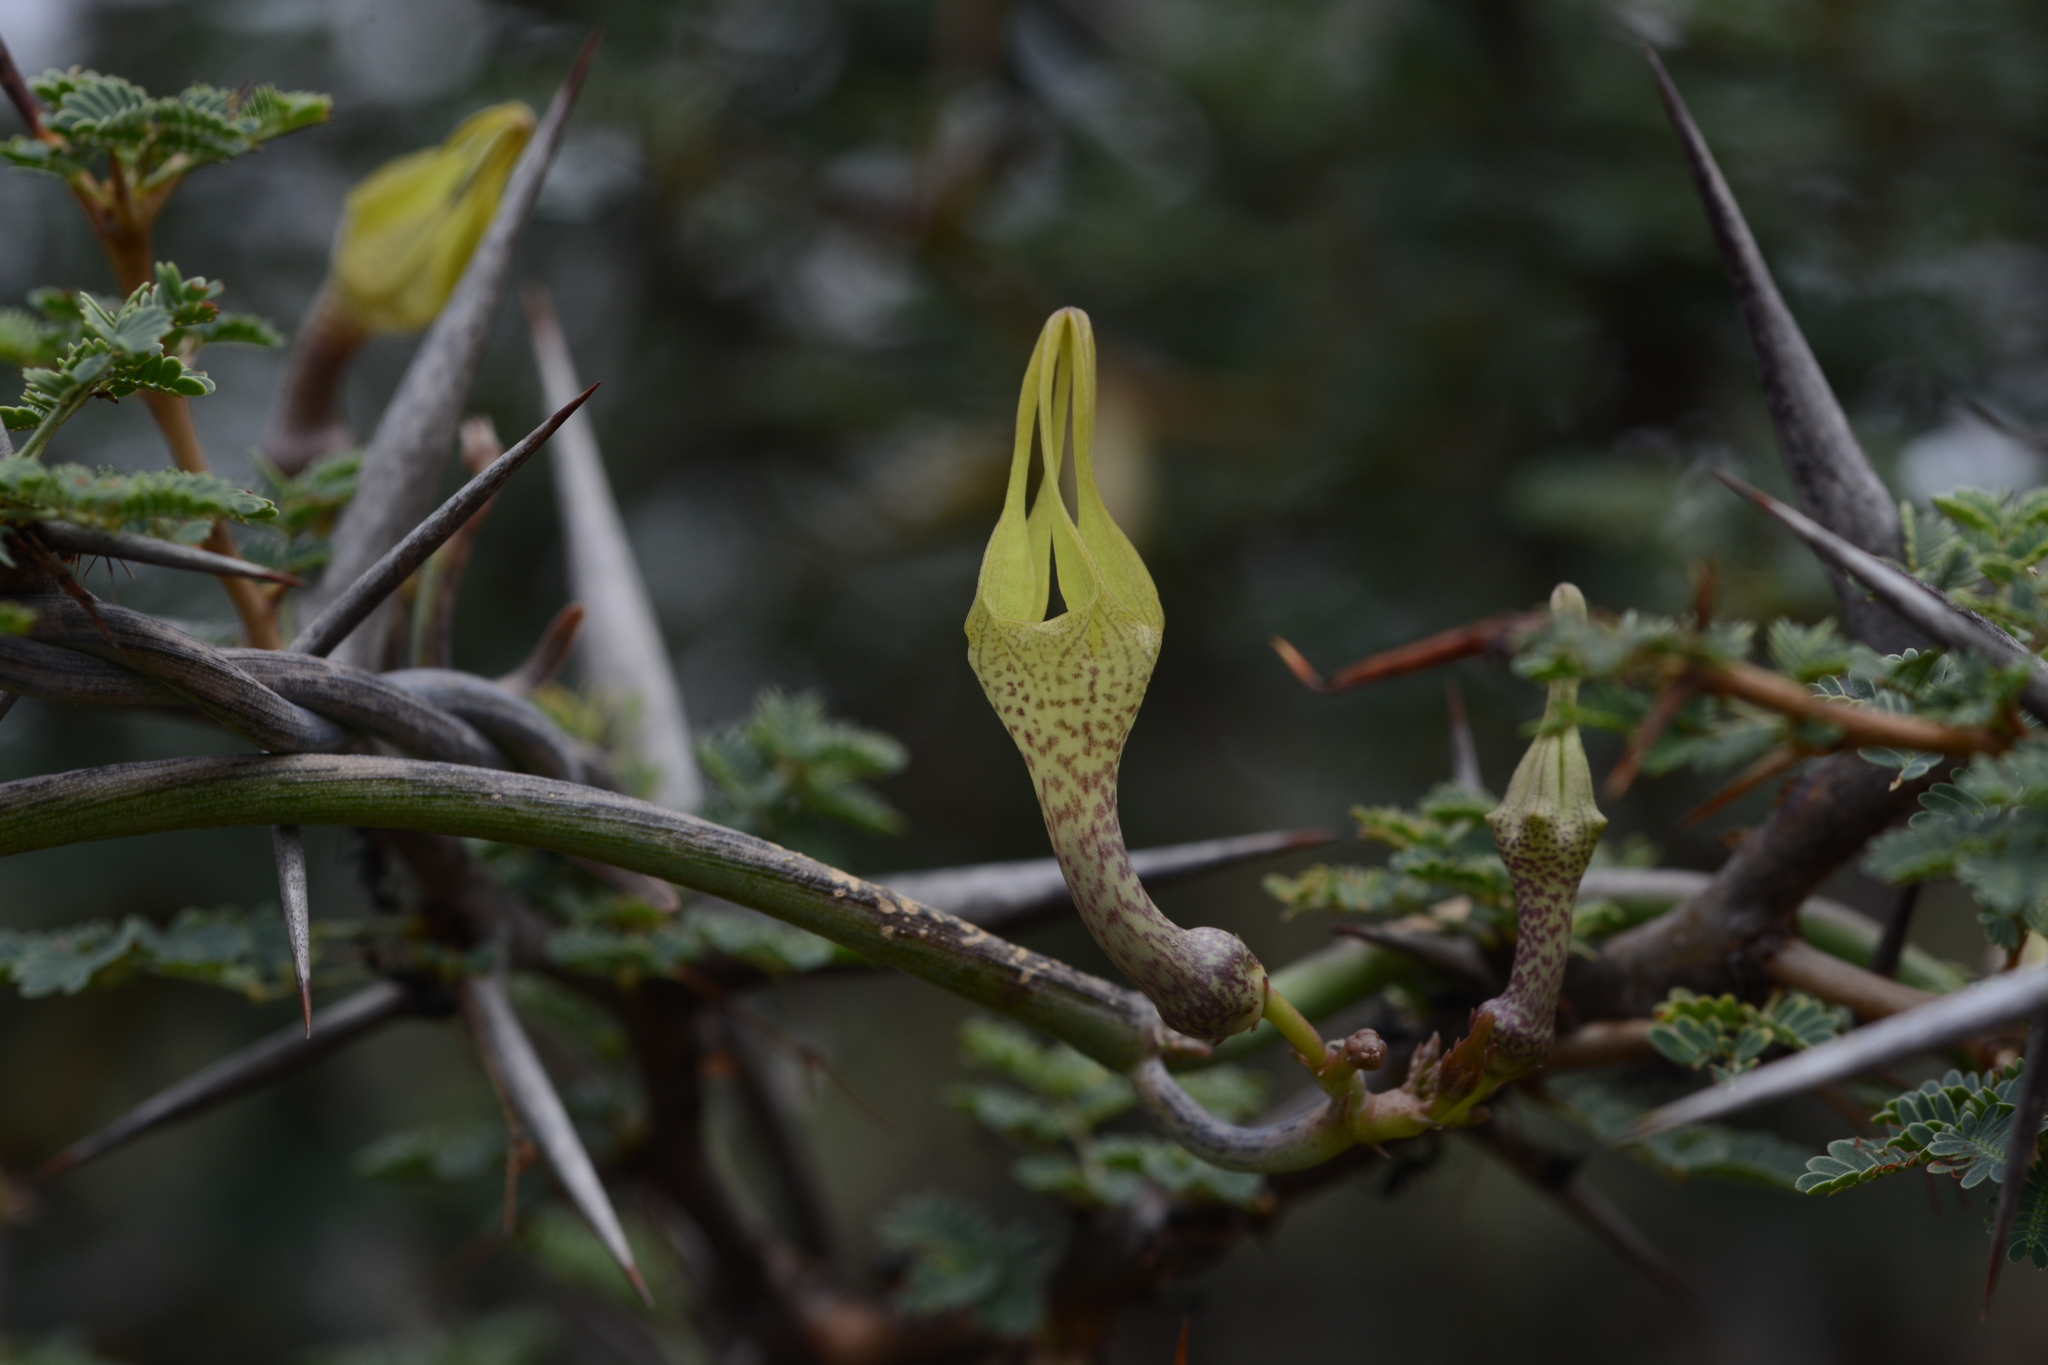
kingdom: Plantae
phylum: Tracheophyta
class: Magnoliopsida
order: Gentianales
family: Apocynaceae
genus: Ceropegia
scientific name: Ceropegia juncea
